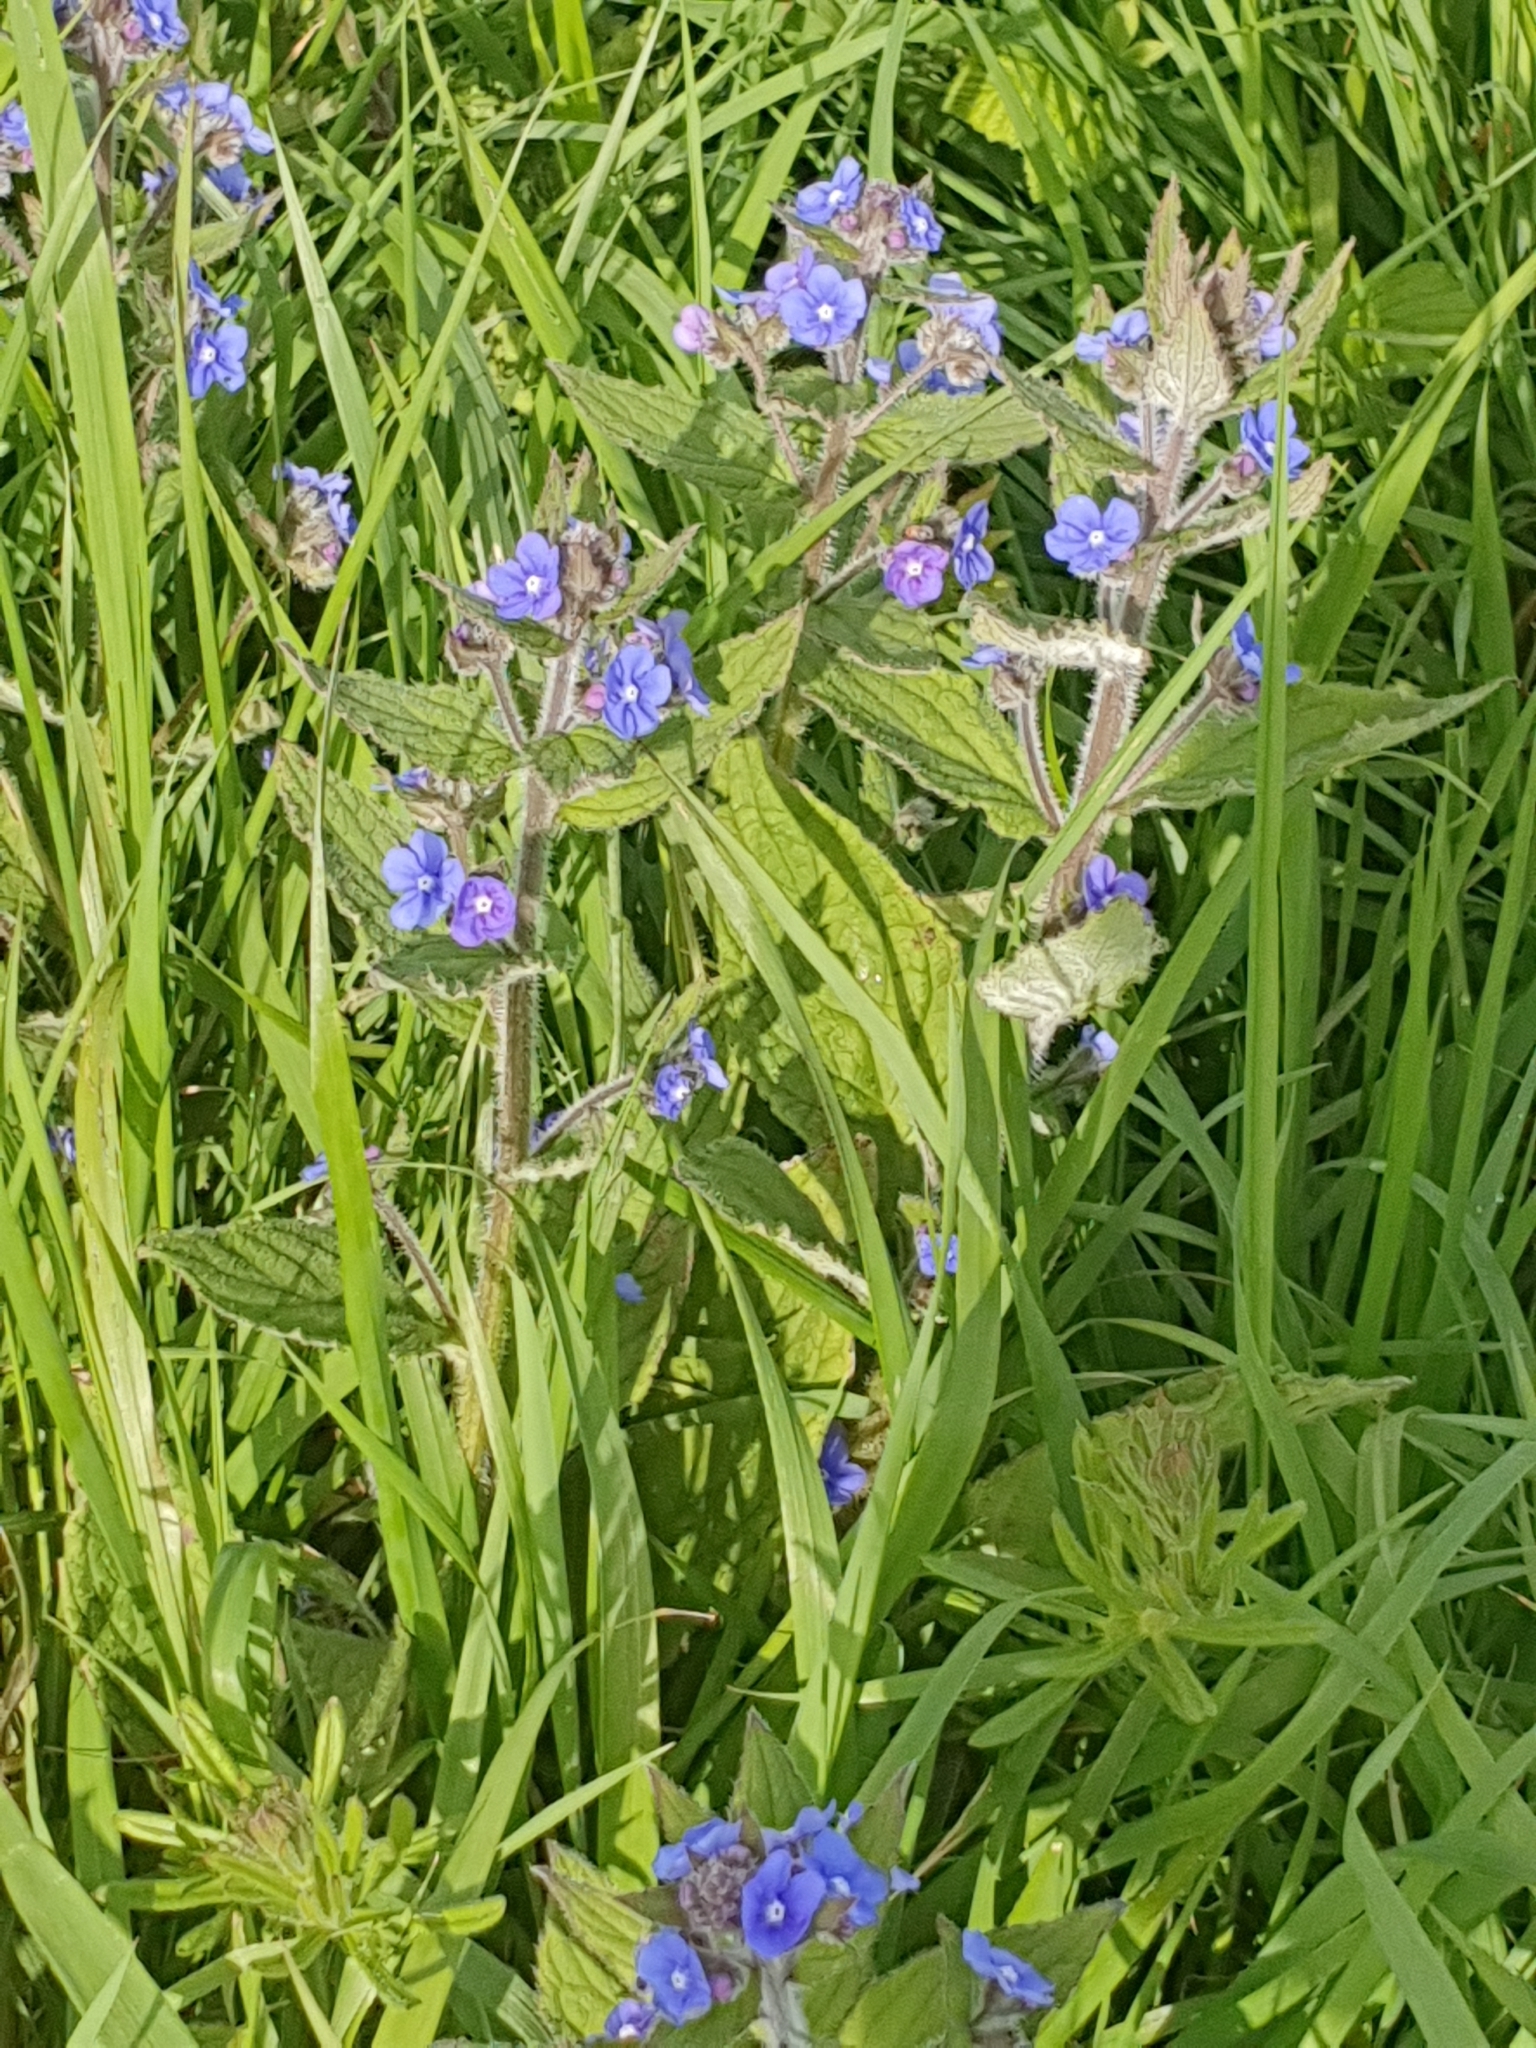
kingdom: Plantae
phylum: Tracheophyta
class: Magnoliopsida
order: Boraginales
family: Boraginaceae
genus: Pentaglottis
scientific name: Pentaglottis sempervirens
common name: Green alkanet
